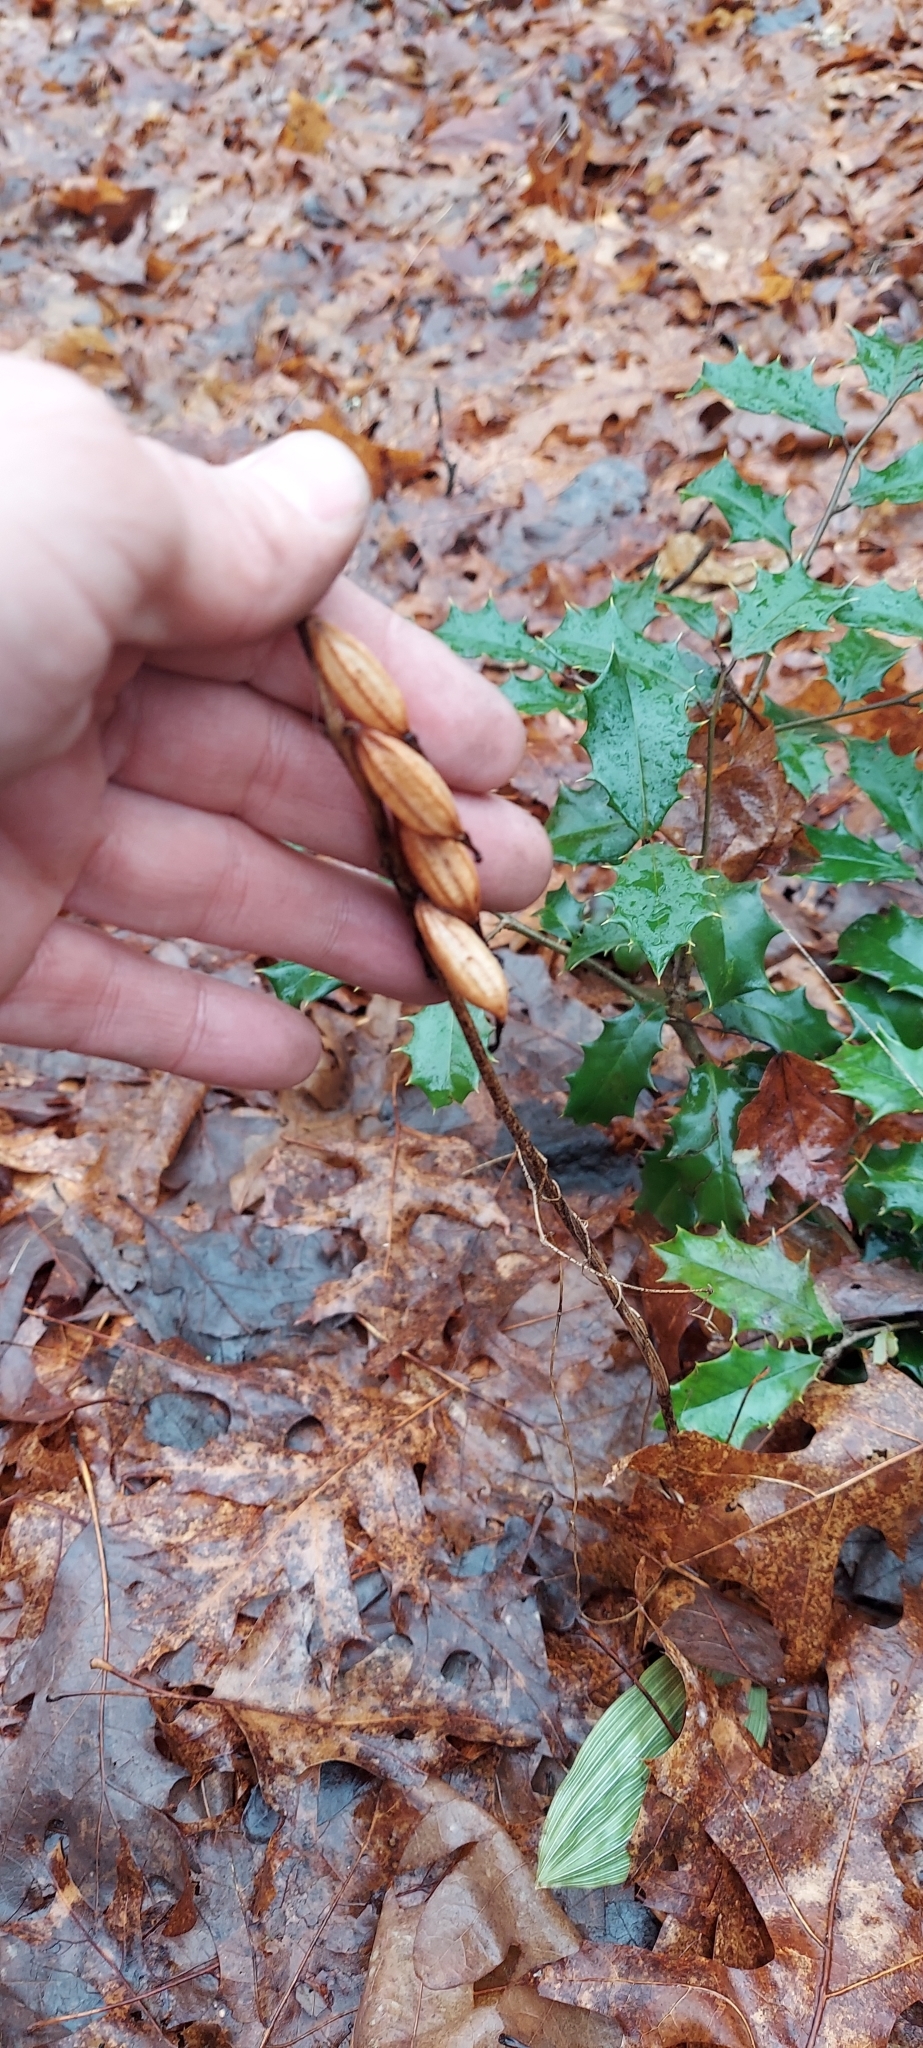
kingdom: Plantae
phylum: Tracheophyta
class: Liliopsida
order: Asparagales
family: Orchidaceae
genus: Aplectrum
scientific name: Aplectrum hyemale
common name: Adam-and-eve
